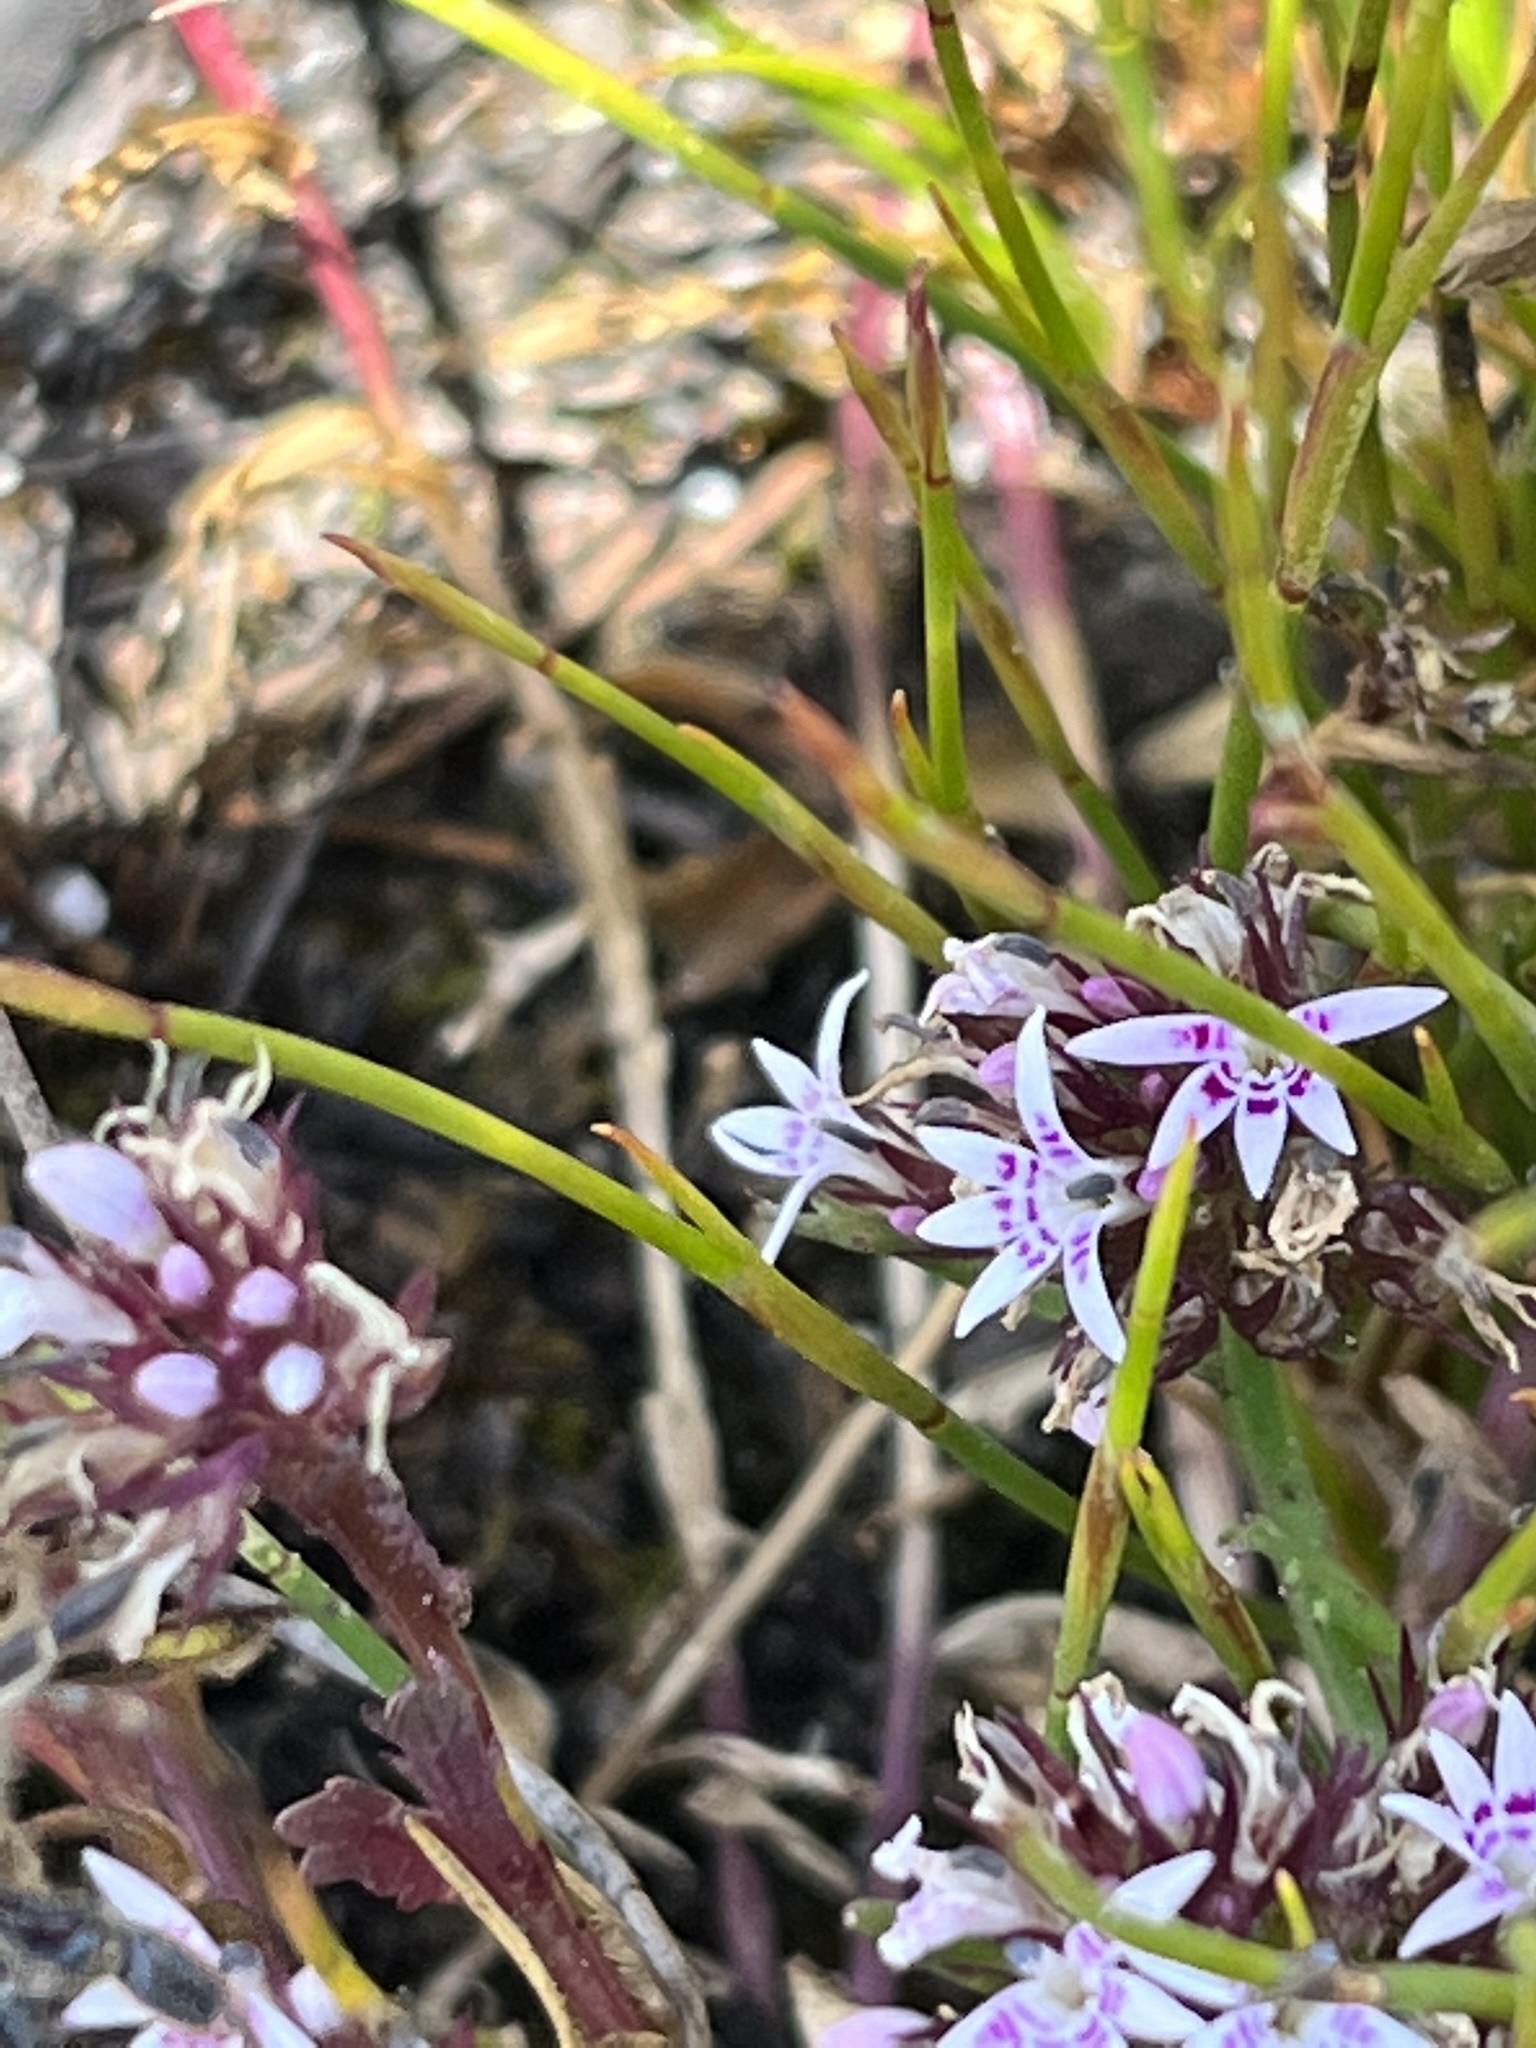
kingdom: Plantae
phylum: Tracheophyta
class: Magnoliopsida
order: Asterales
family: Campanulaceae
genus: Lobelia
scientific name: Lobelia jasionoides
